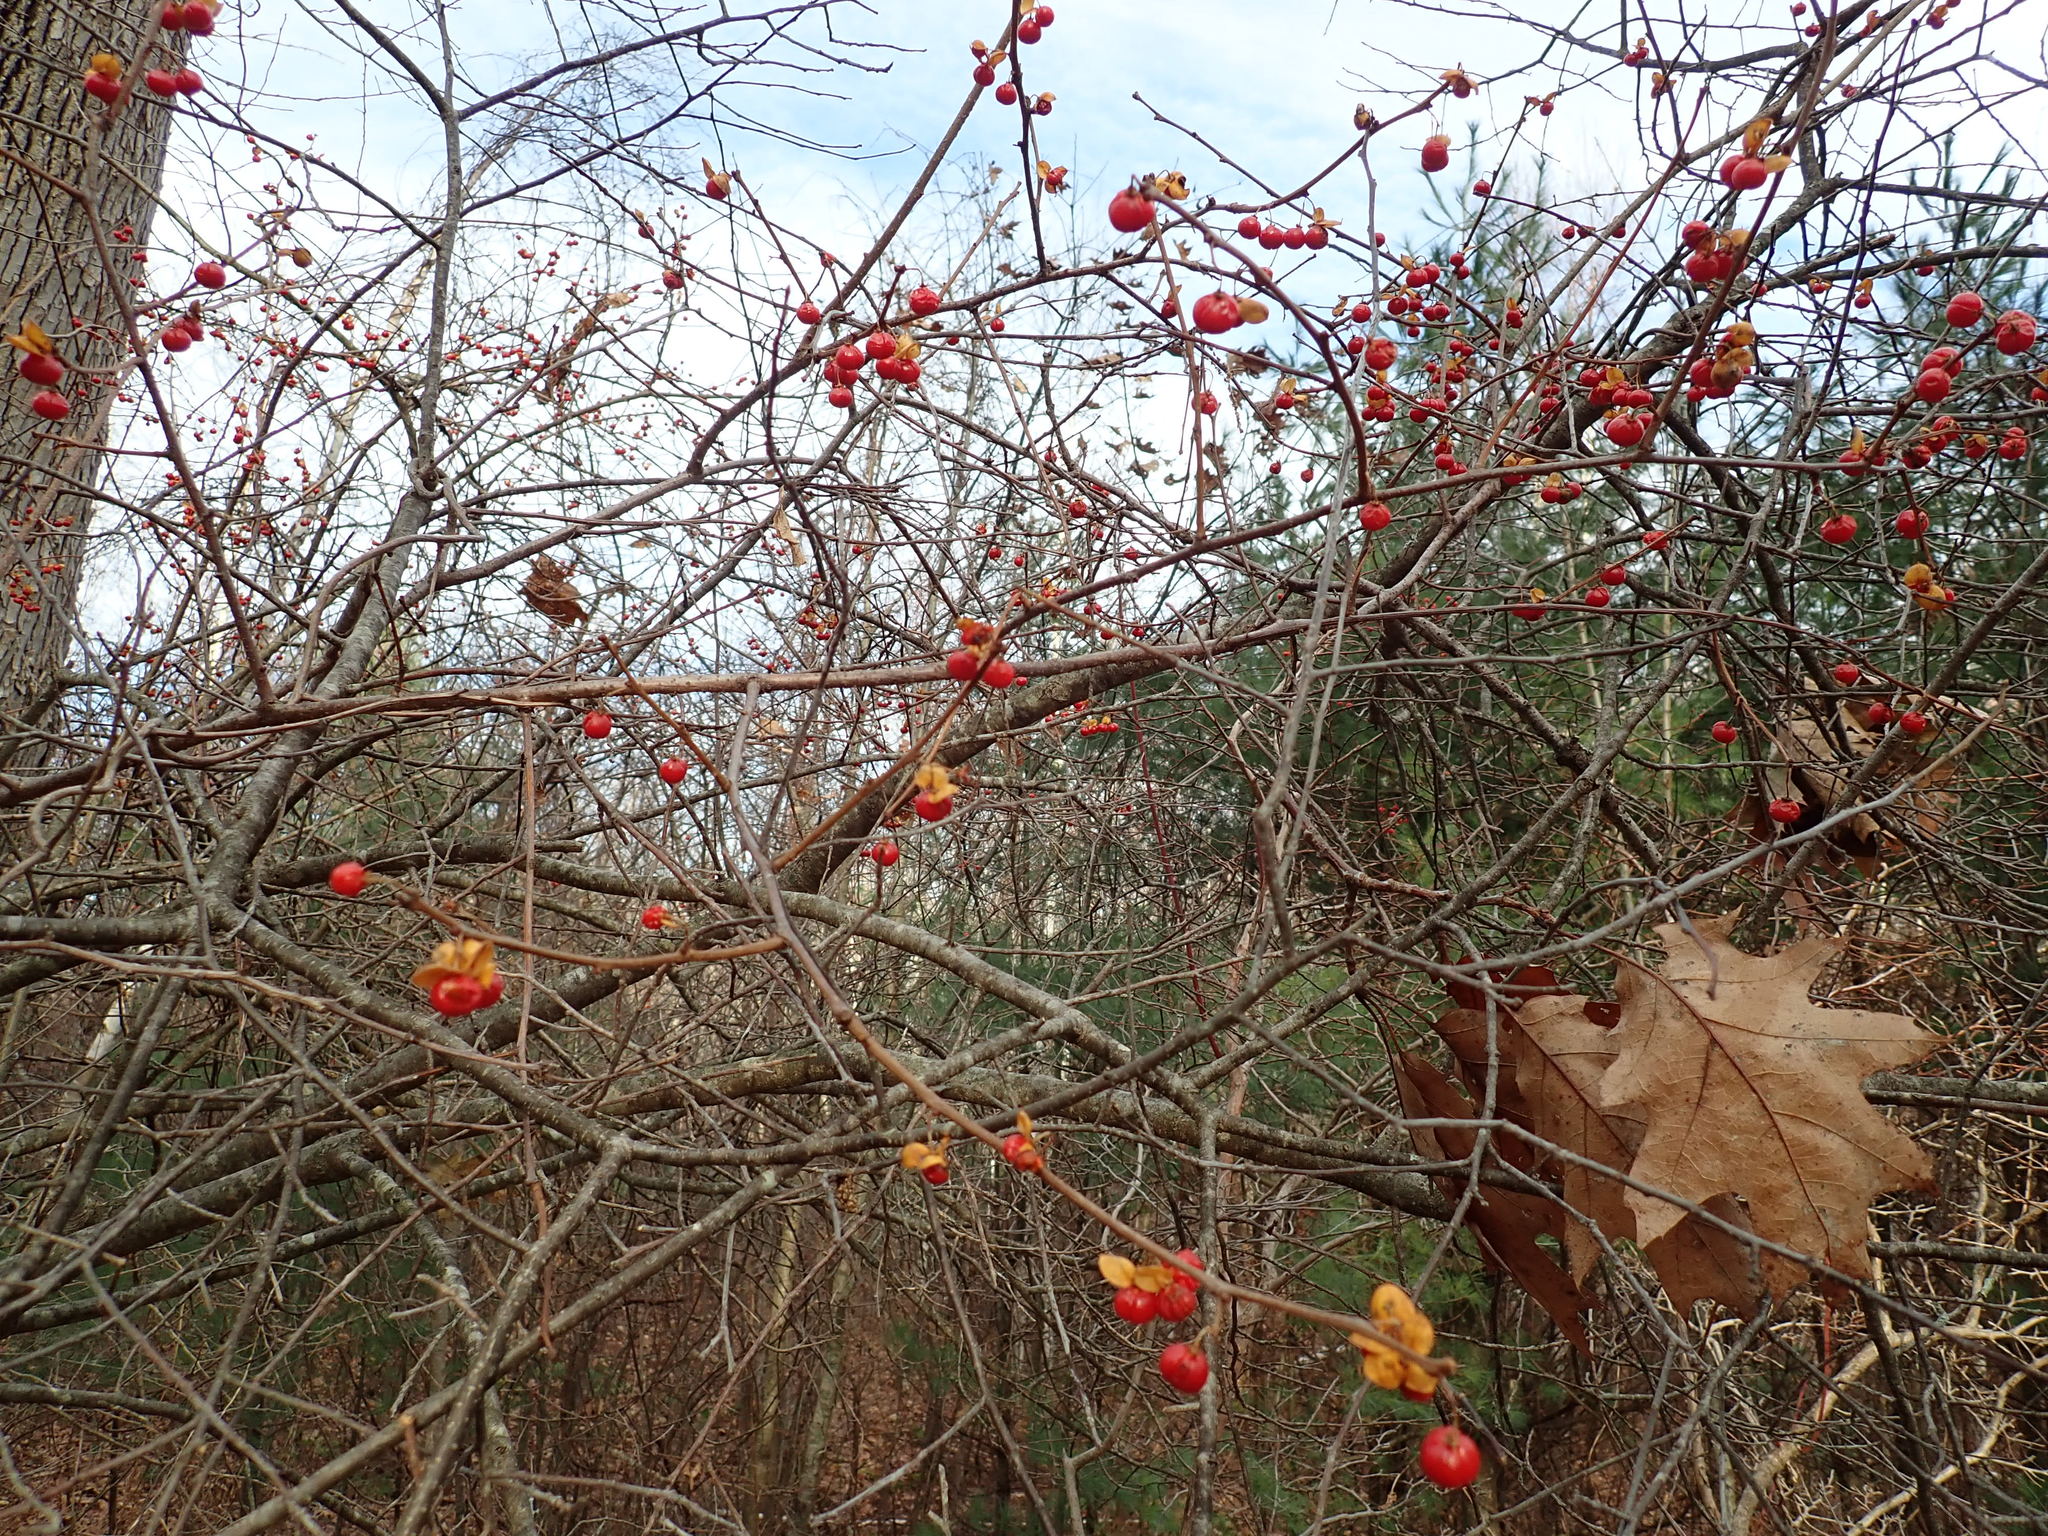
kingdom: Plantae
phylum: Tracheophyta
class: Magnoliopsida
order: Celastrales
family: Celastraceae
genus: Celastrus
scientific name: Celastrus orbiculatus
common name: Oriental bittersweet
